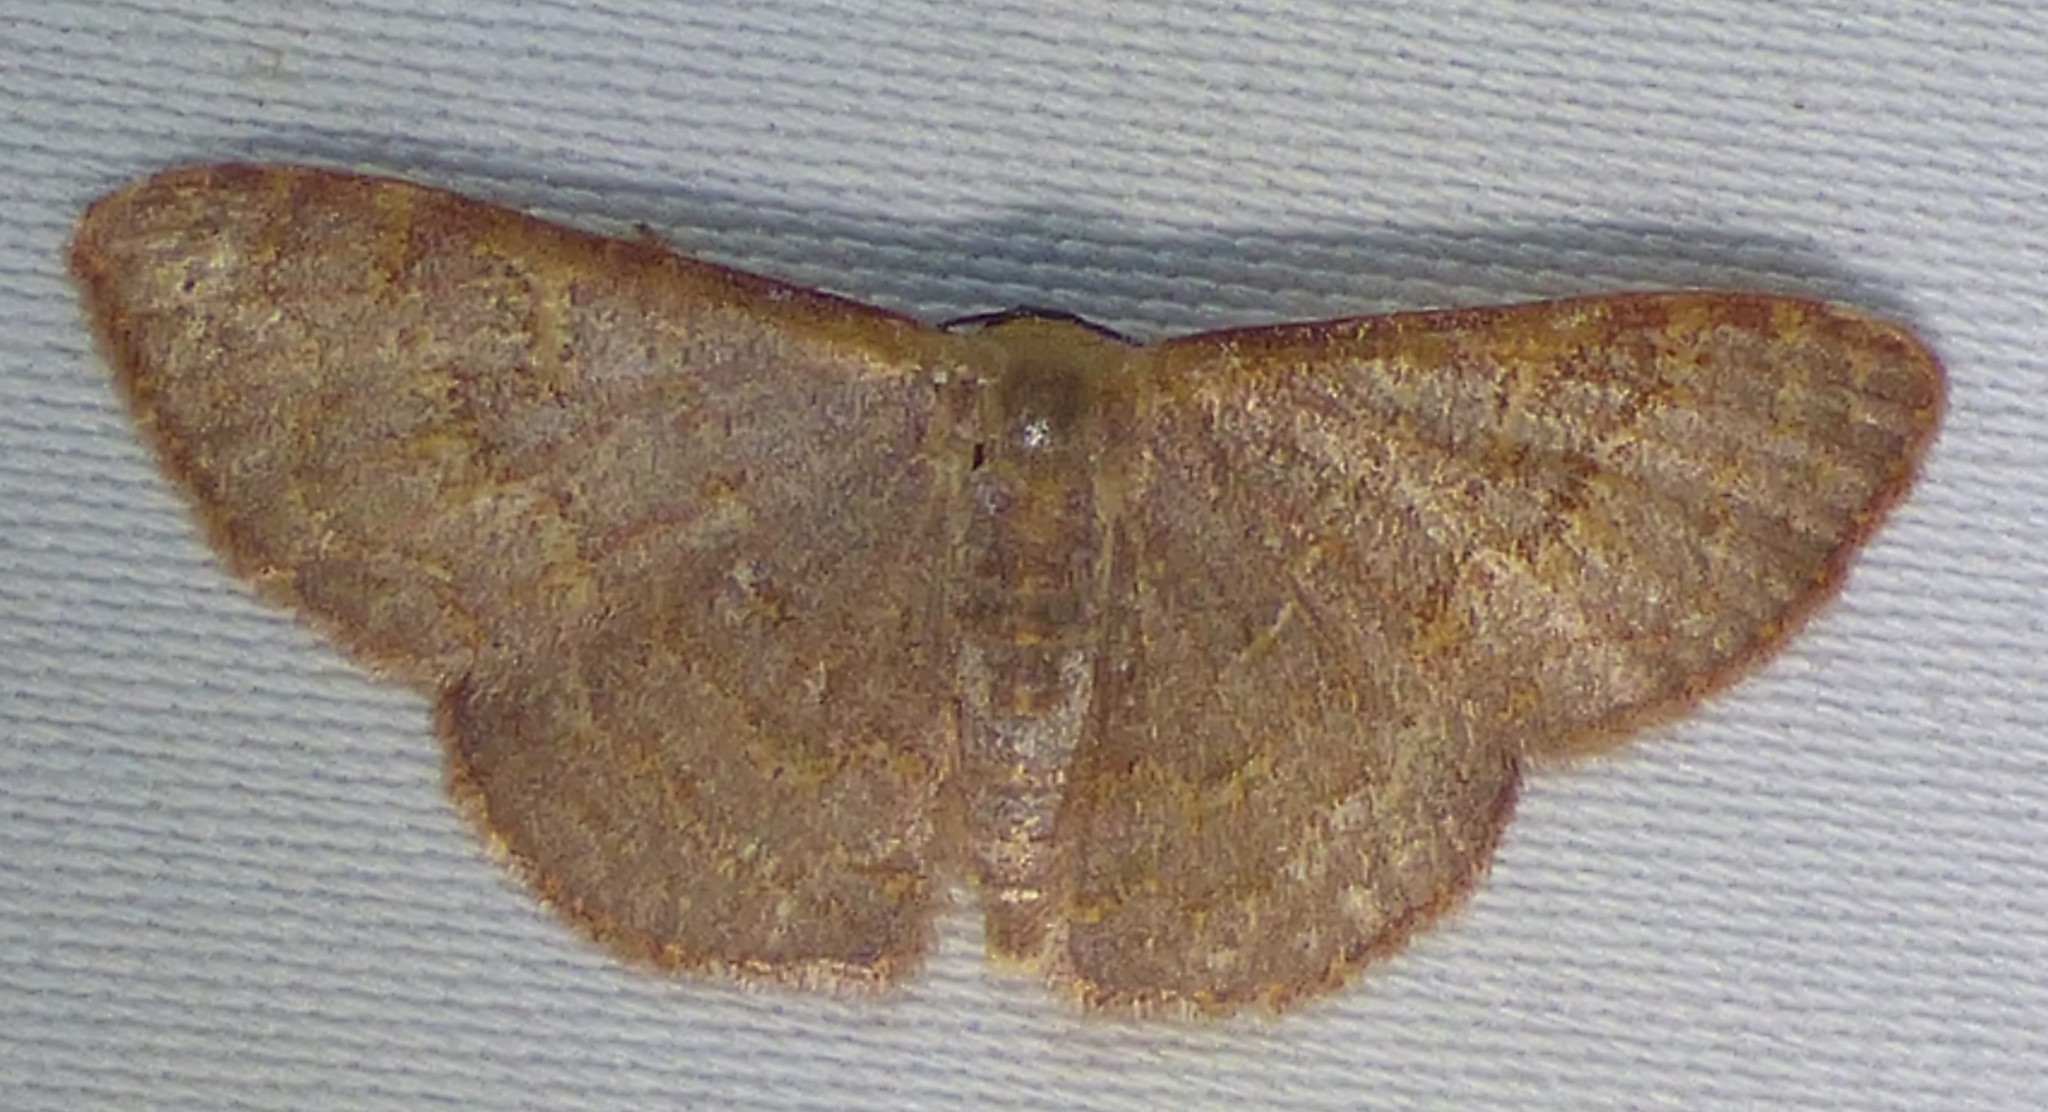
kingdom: Animalia
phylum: Arthropoda
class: Insecta
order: Lepidoptera
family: Geometridae
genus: Leptostales
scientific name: Leptostales pannaria
